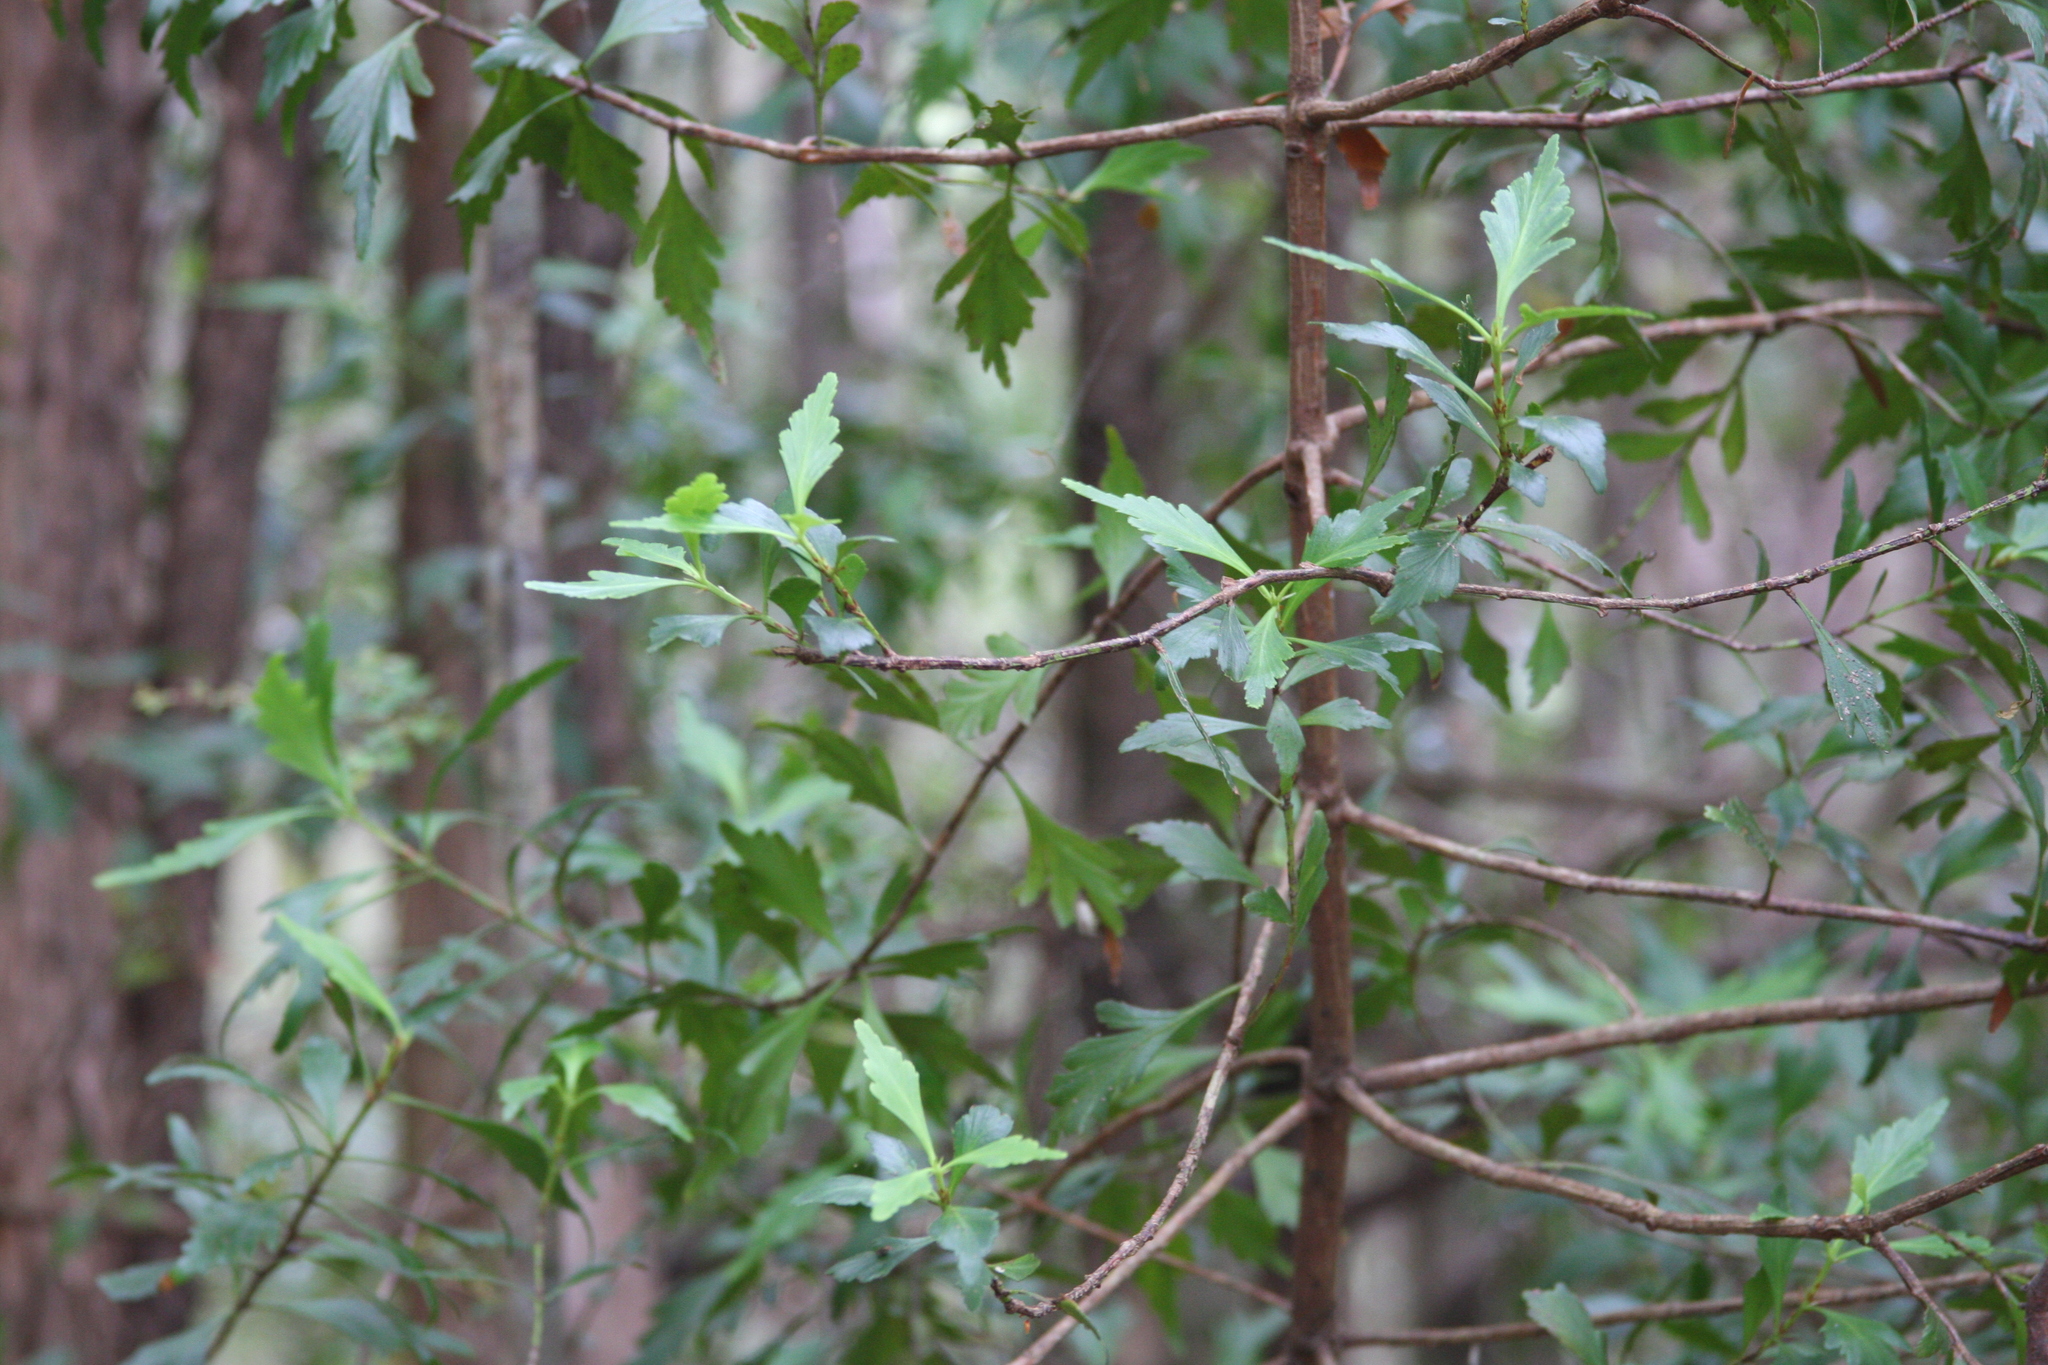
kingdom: Plantae
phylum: Tracheophyta
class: Pinopsida
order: Pinales
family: Phyllocladaceae
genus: Phyllocladus
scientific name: Phyllocladus aspleniifolius
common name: Celery-top pine
